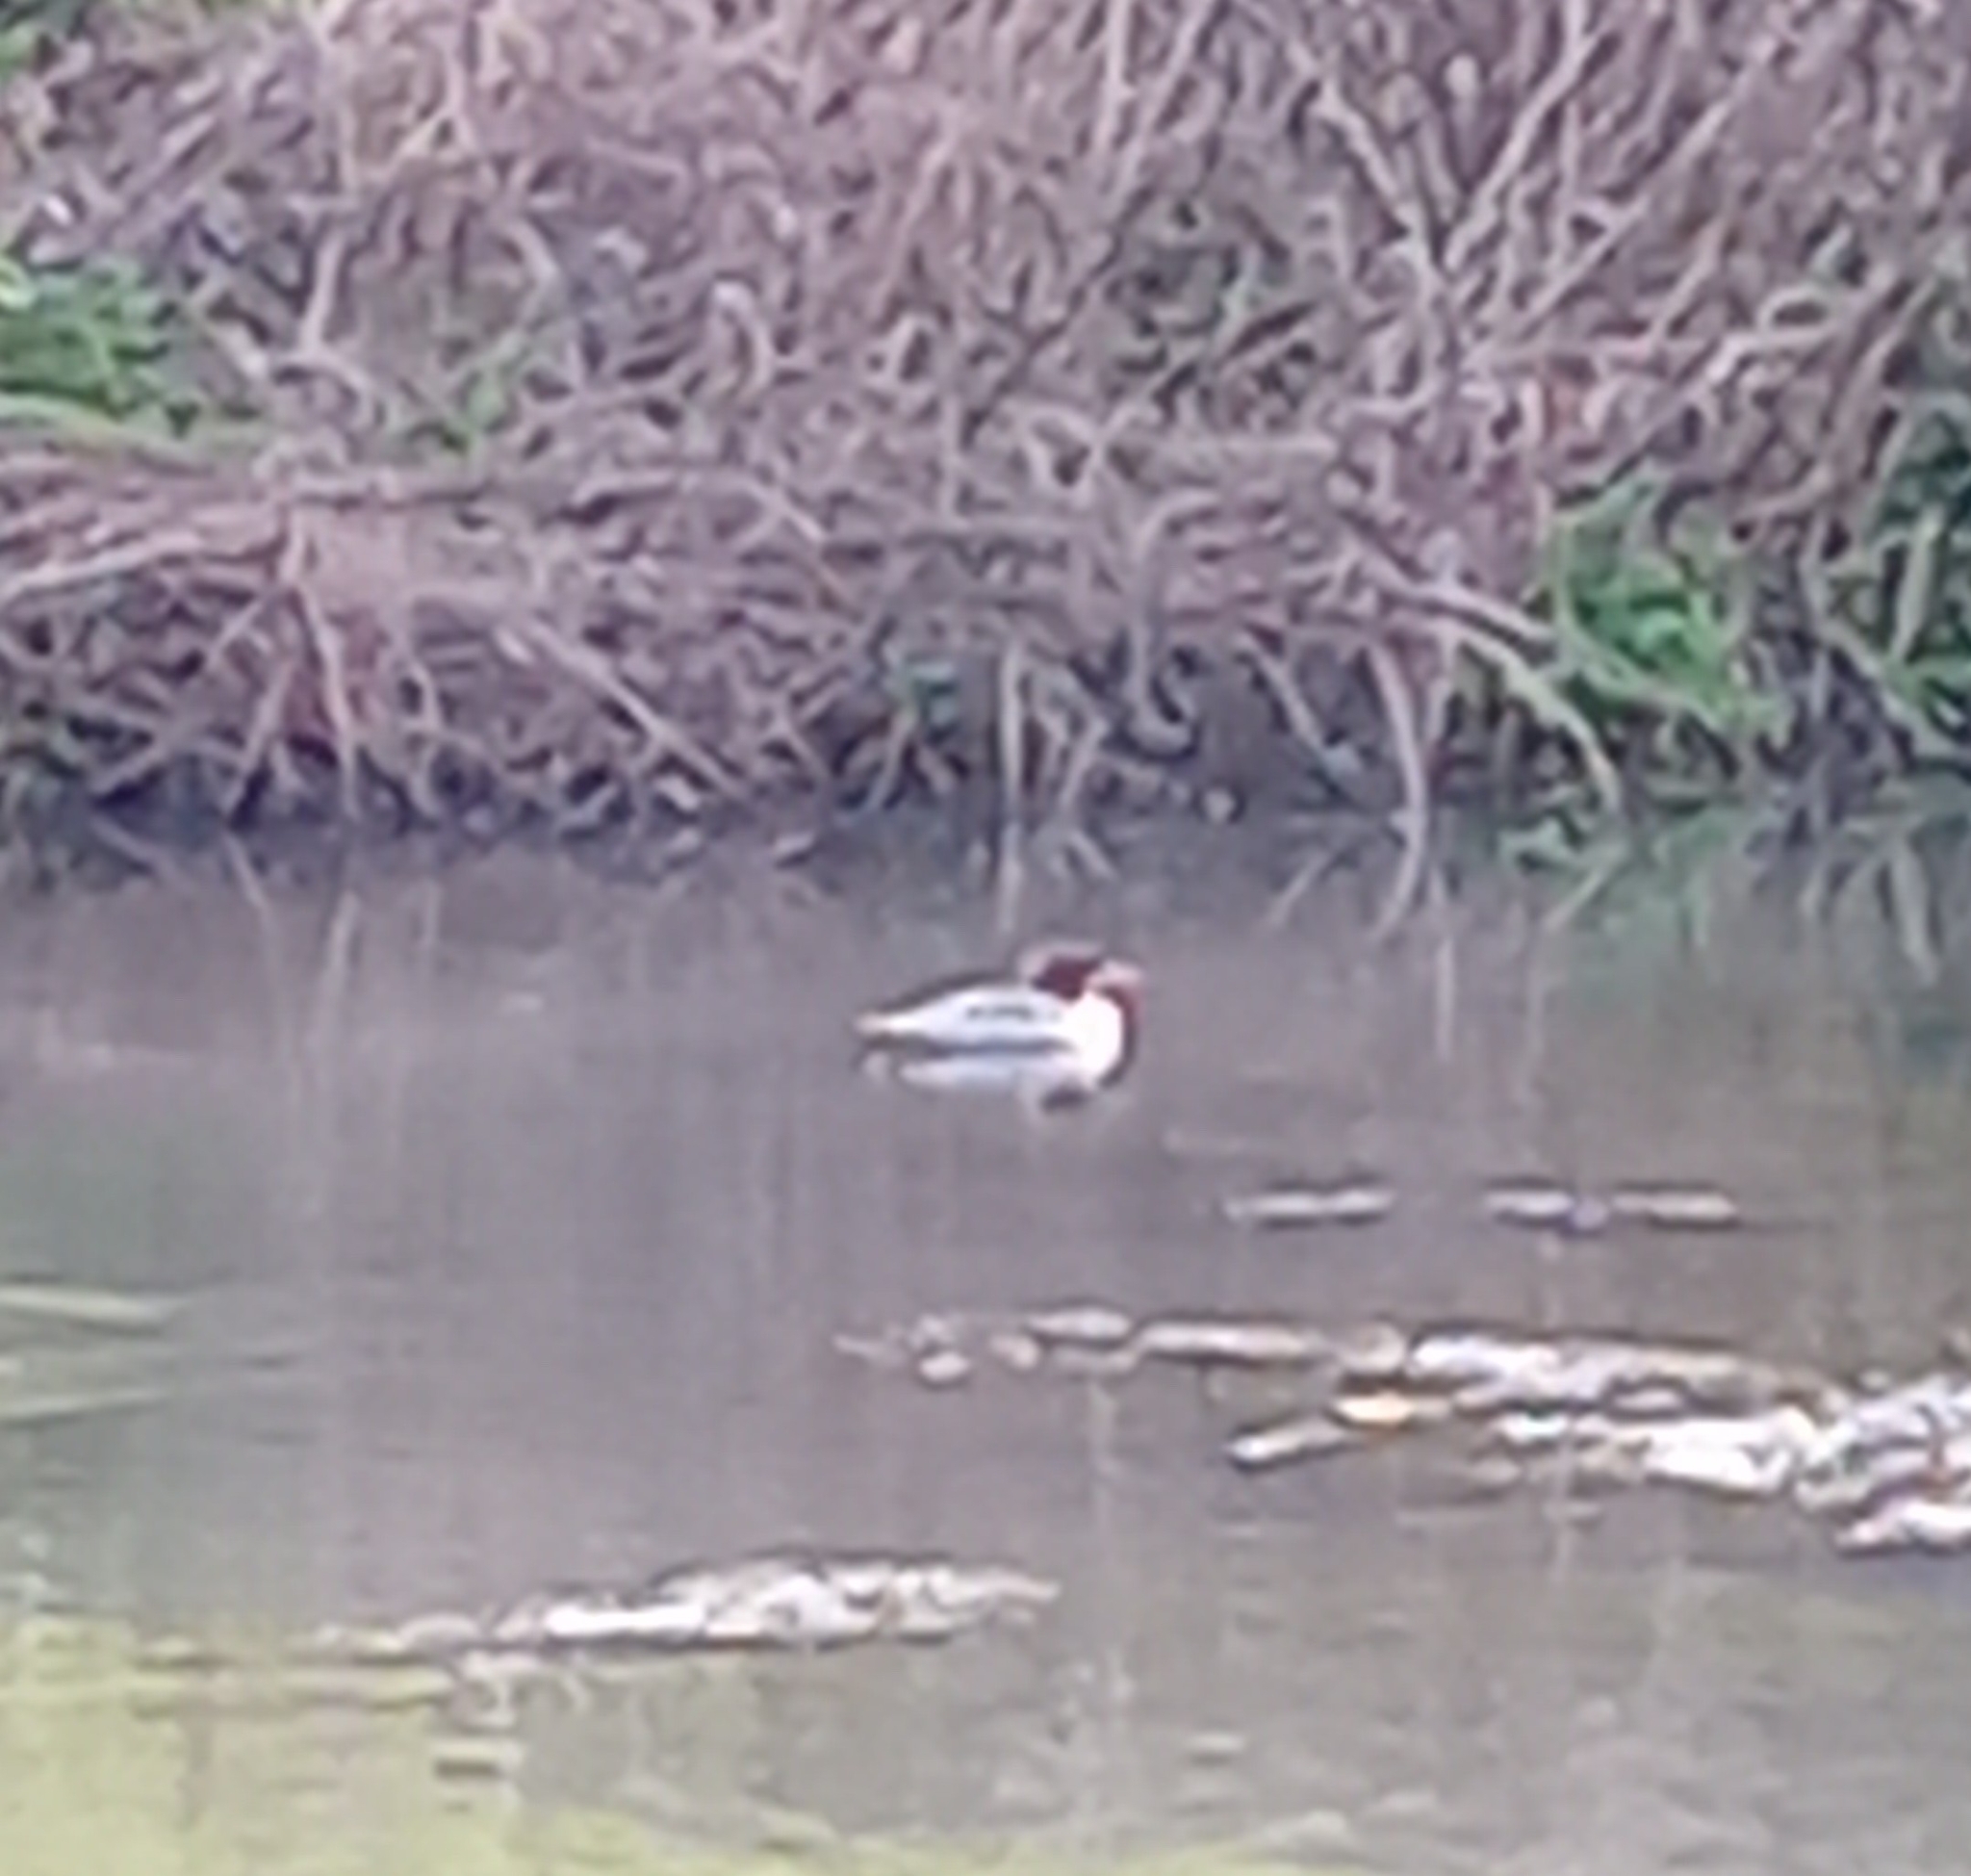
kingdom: Animalia
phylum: Chordata
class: Aves
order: Anseriformes
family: Anatidae
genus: Mergus
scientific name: Mergus merganser
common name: Common merganser
